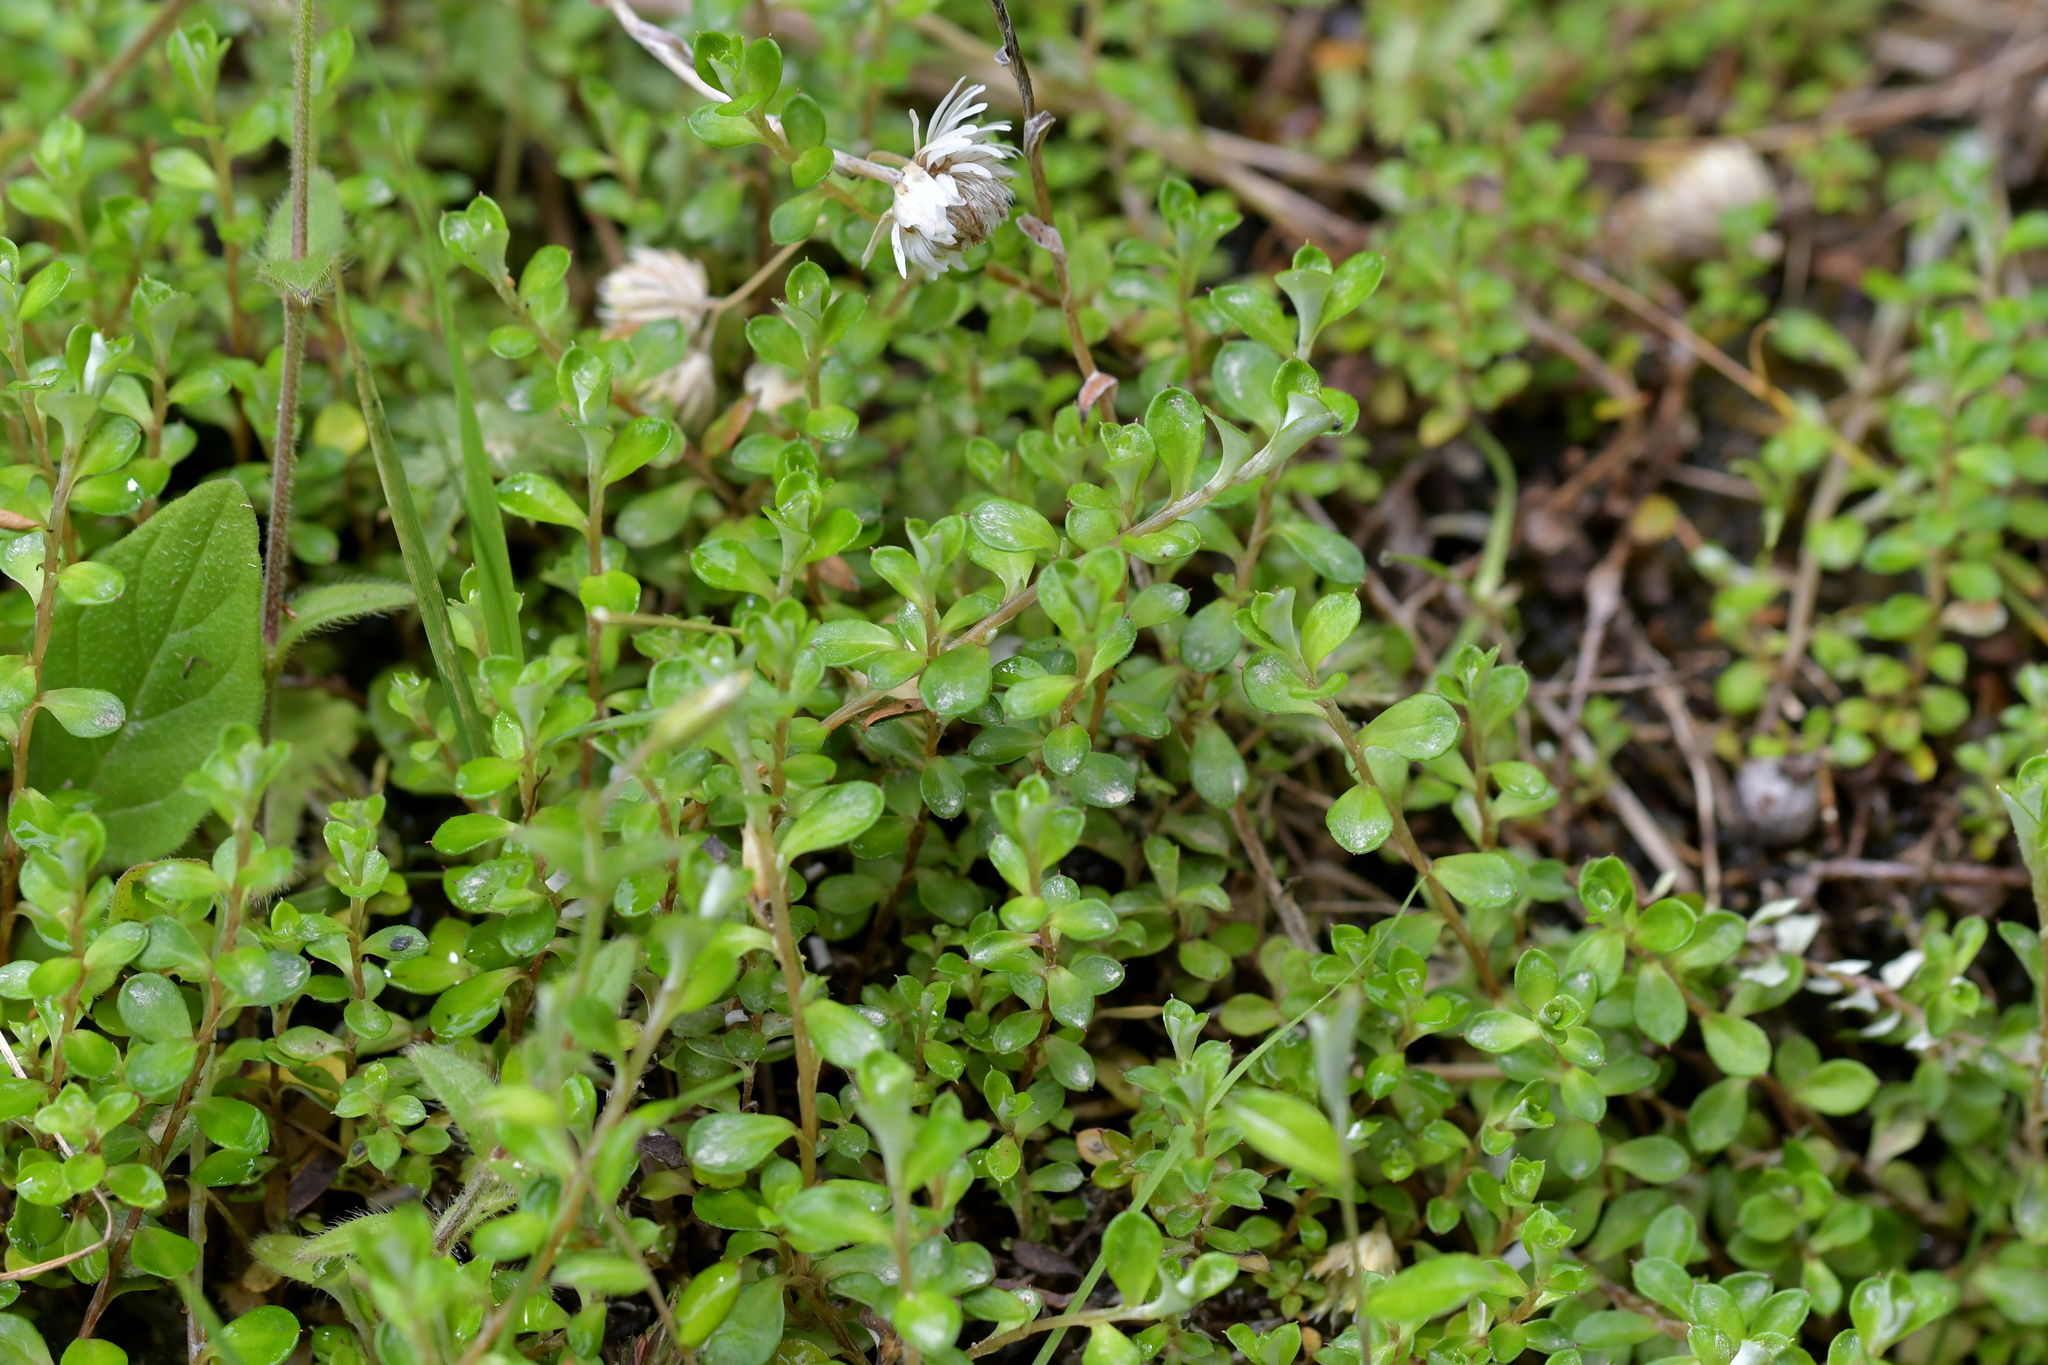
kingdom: Plantae
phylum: Tracheophyta
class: Magnoliopsida
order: Asterales
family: Asteraceae
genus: Anaphalioides
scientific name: Anaphalioides bellidioides
